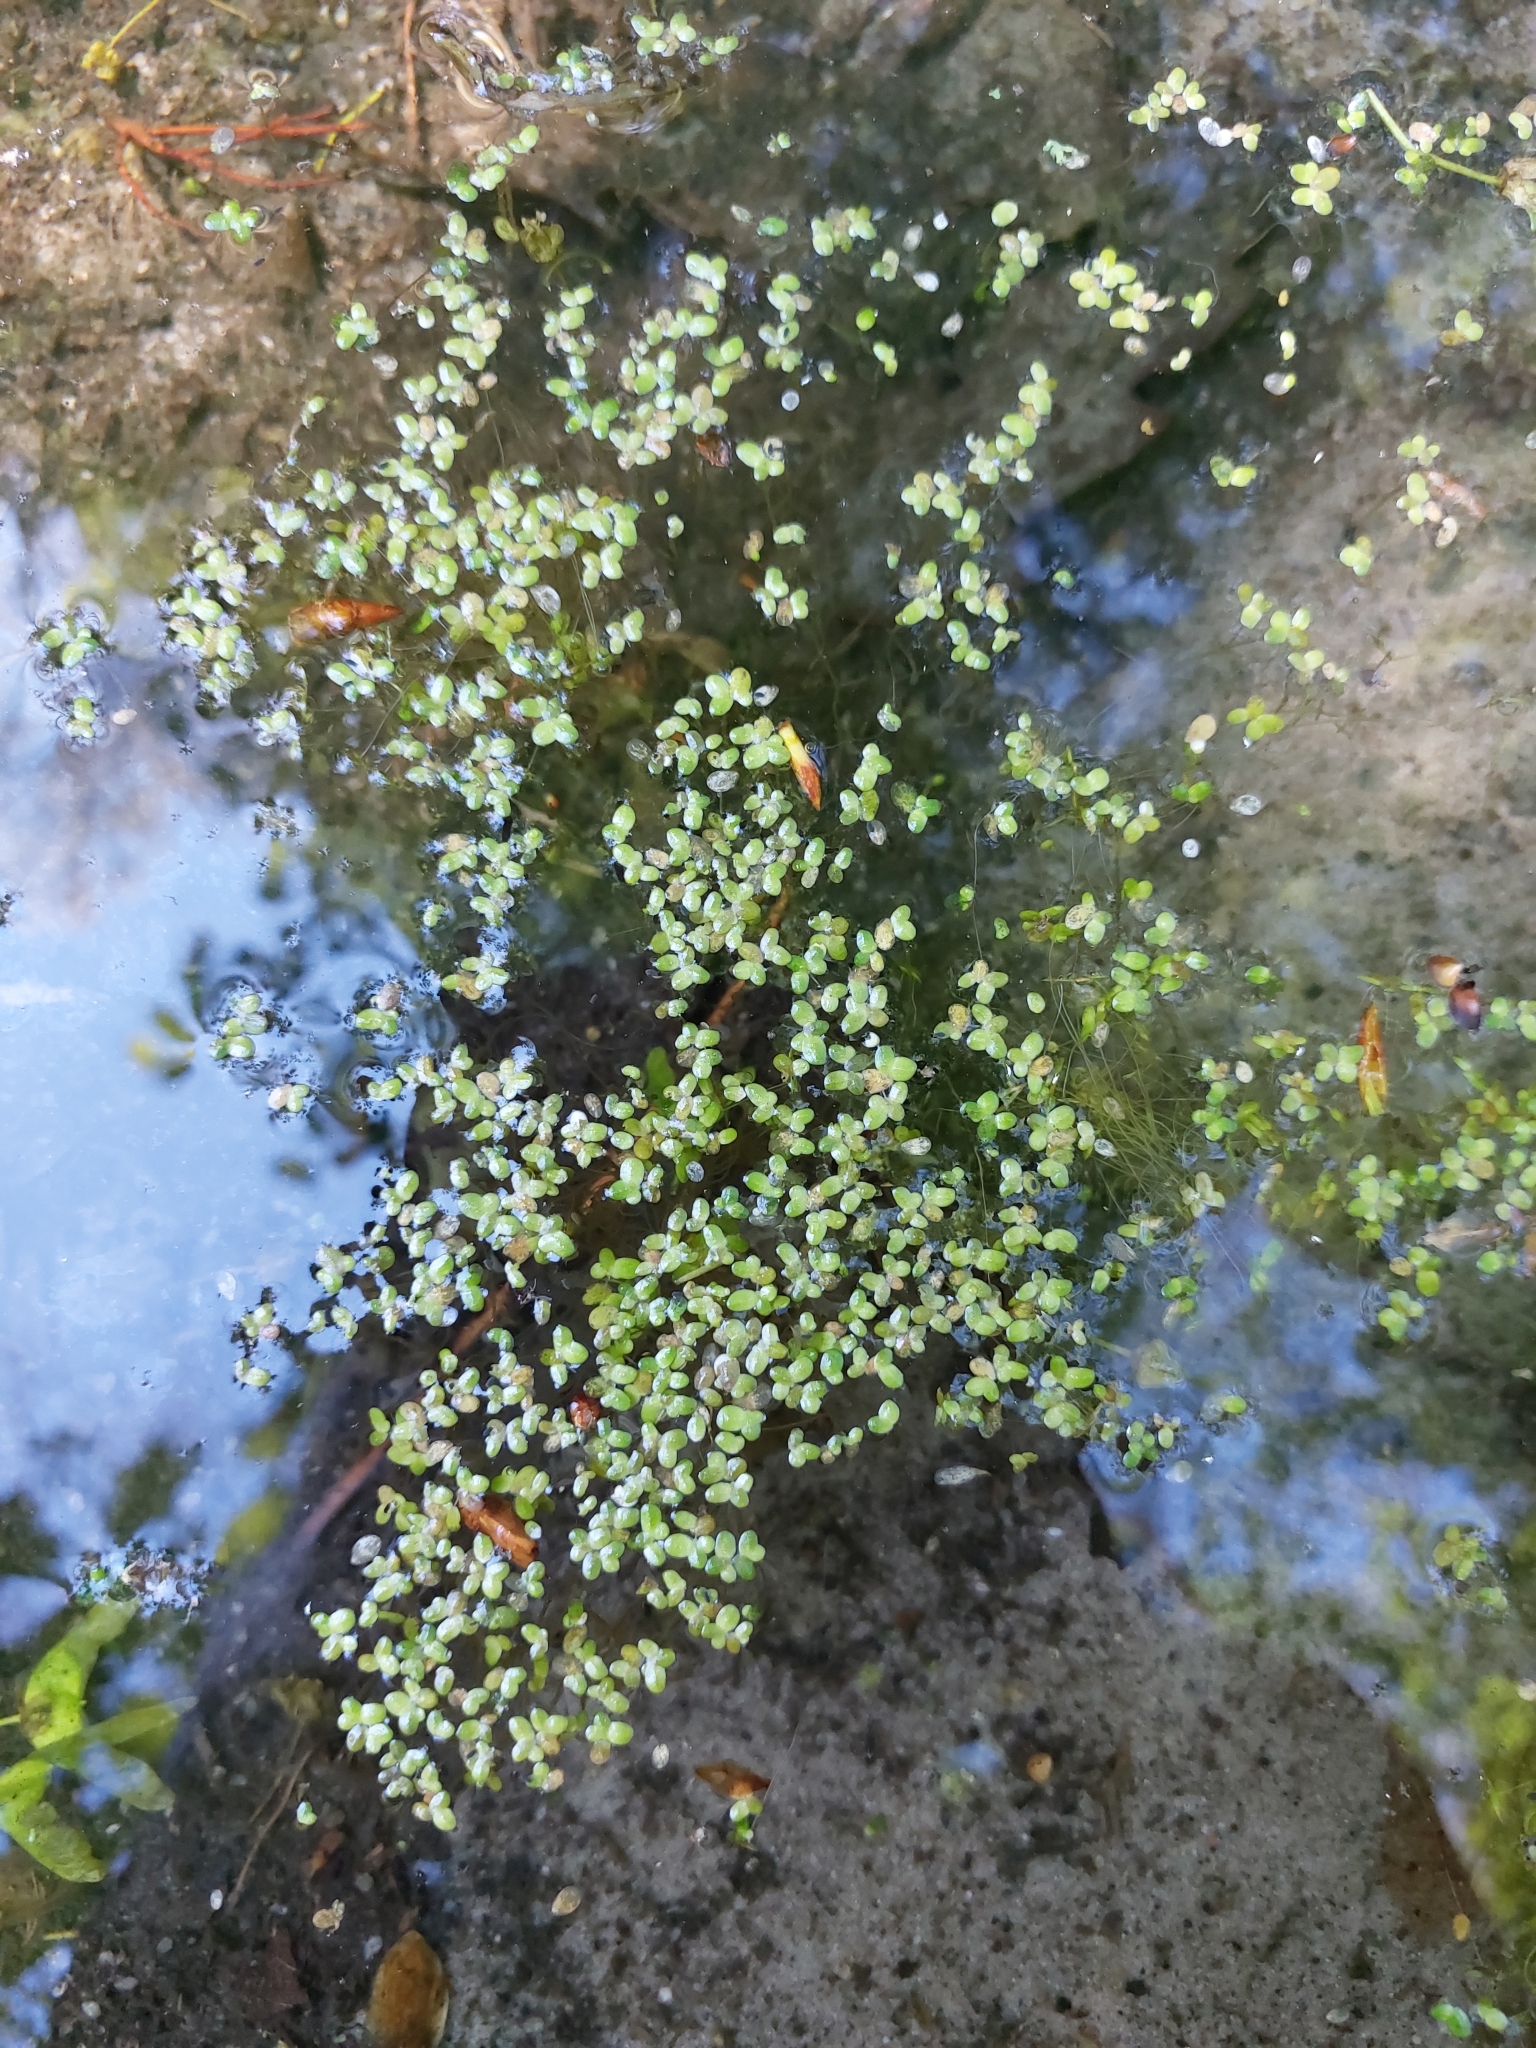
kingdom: Plantae
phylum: Tracheophyta
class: Liliopsida
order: Alismatales
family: Araceae
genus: Lemna
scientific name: Lemna minor
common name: Common duckweed
